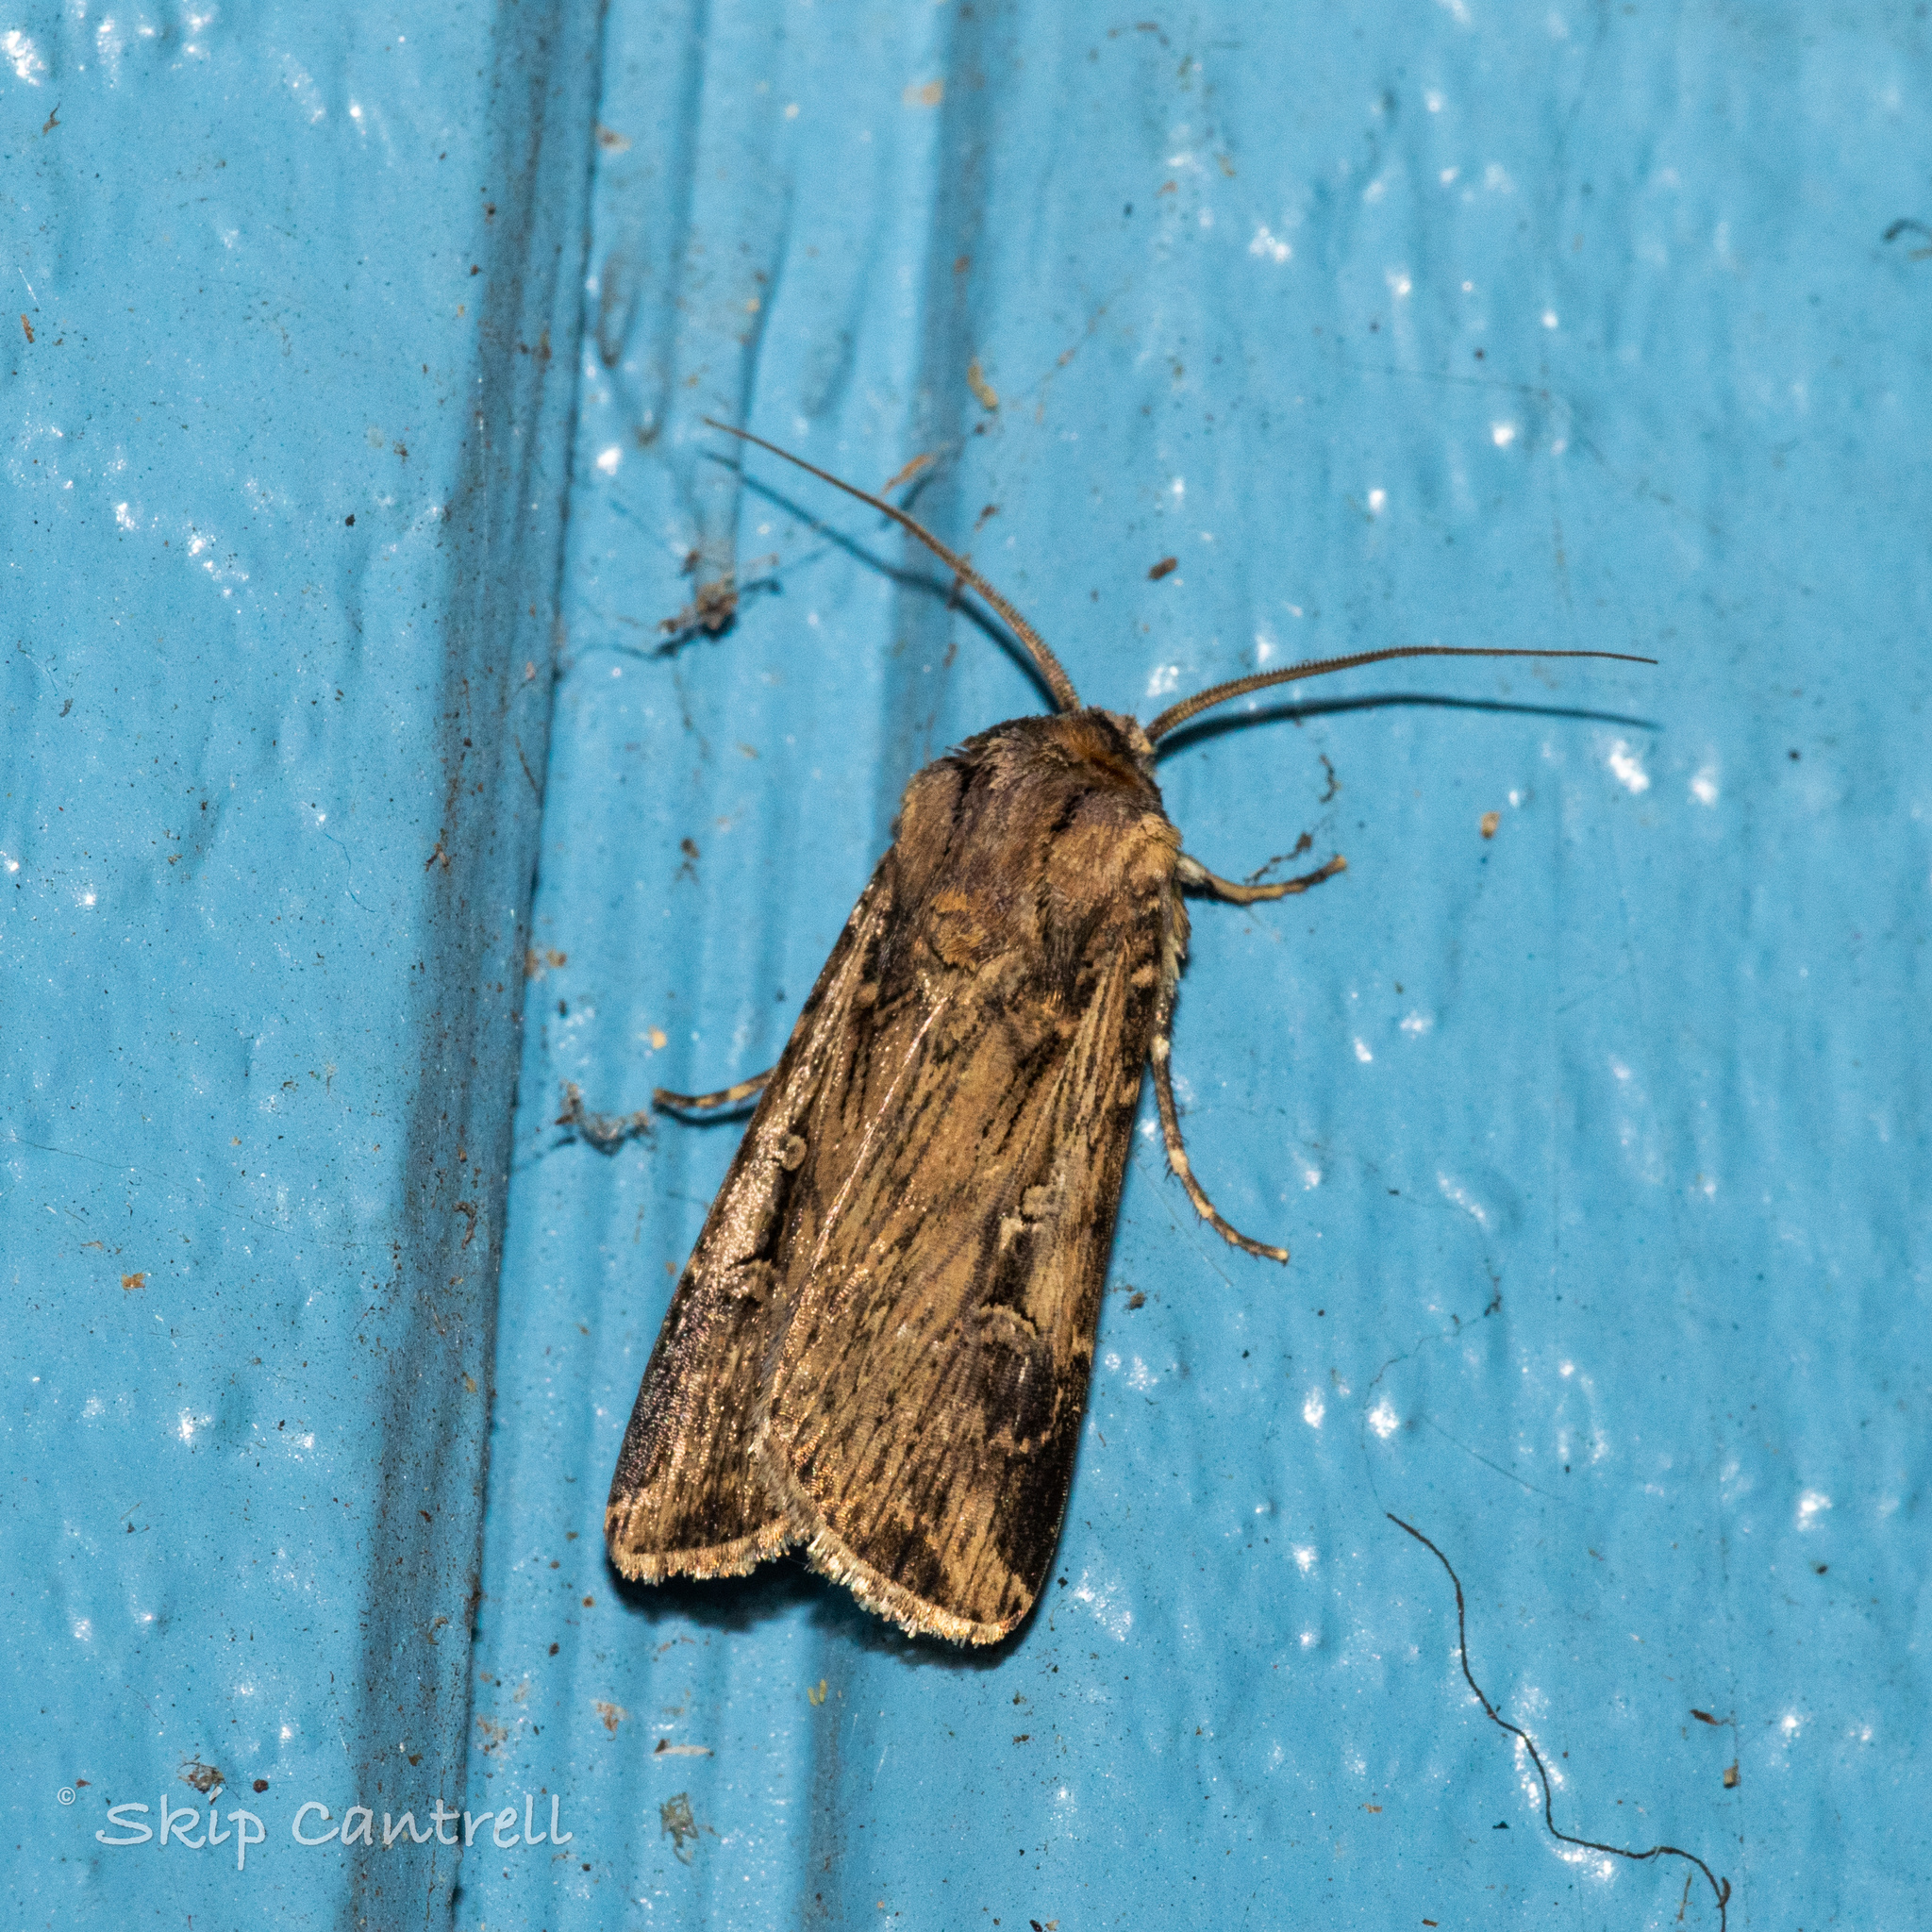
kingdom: Animalia
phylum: Arthropoda
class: Insecta
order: Lepidoptera
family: Noctuidae
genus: Feltia
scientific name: Feltia subterranea
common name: Granulate cutworm
